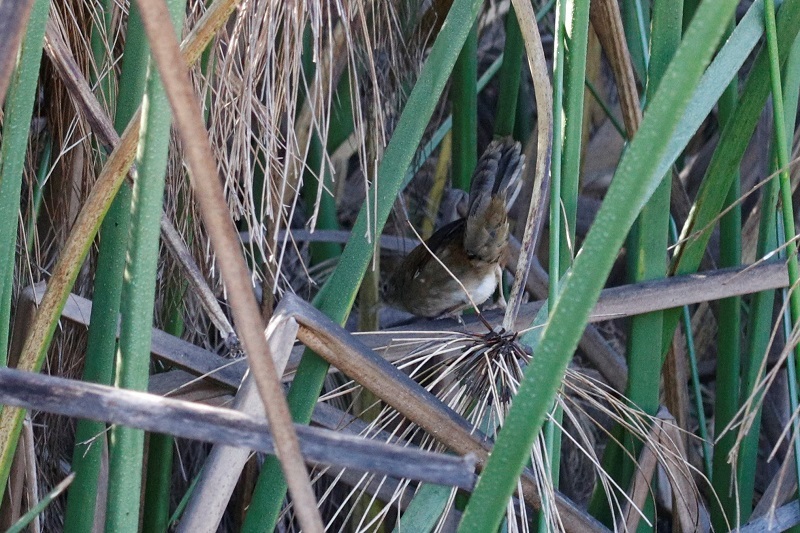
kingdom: Animalia
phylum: Chordata
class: Aves
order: Passeriformes
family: Acrocephalidae
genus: Acrocephalus
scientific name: Acrocephalus gracilirostris
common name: Lesser swamp warbler
